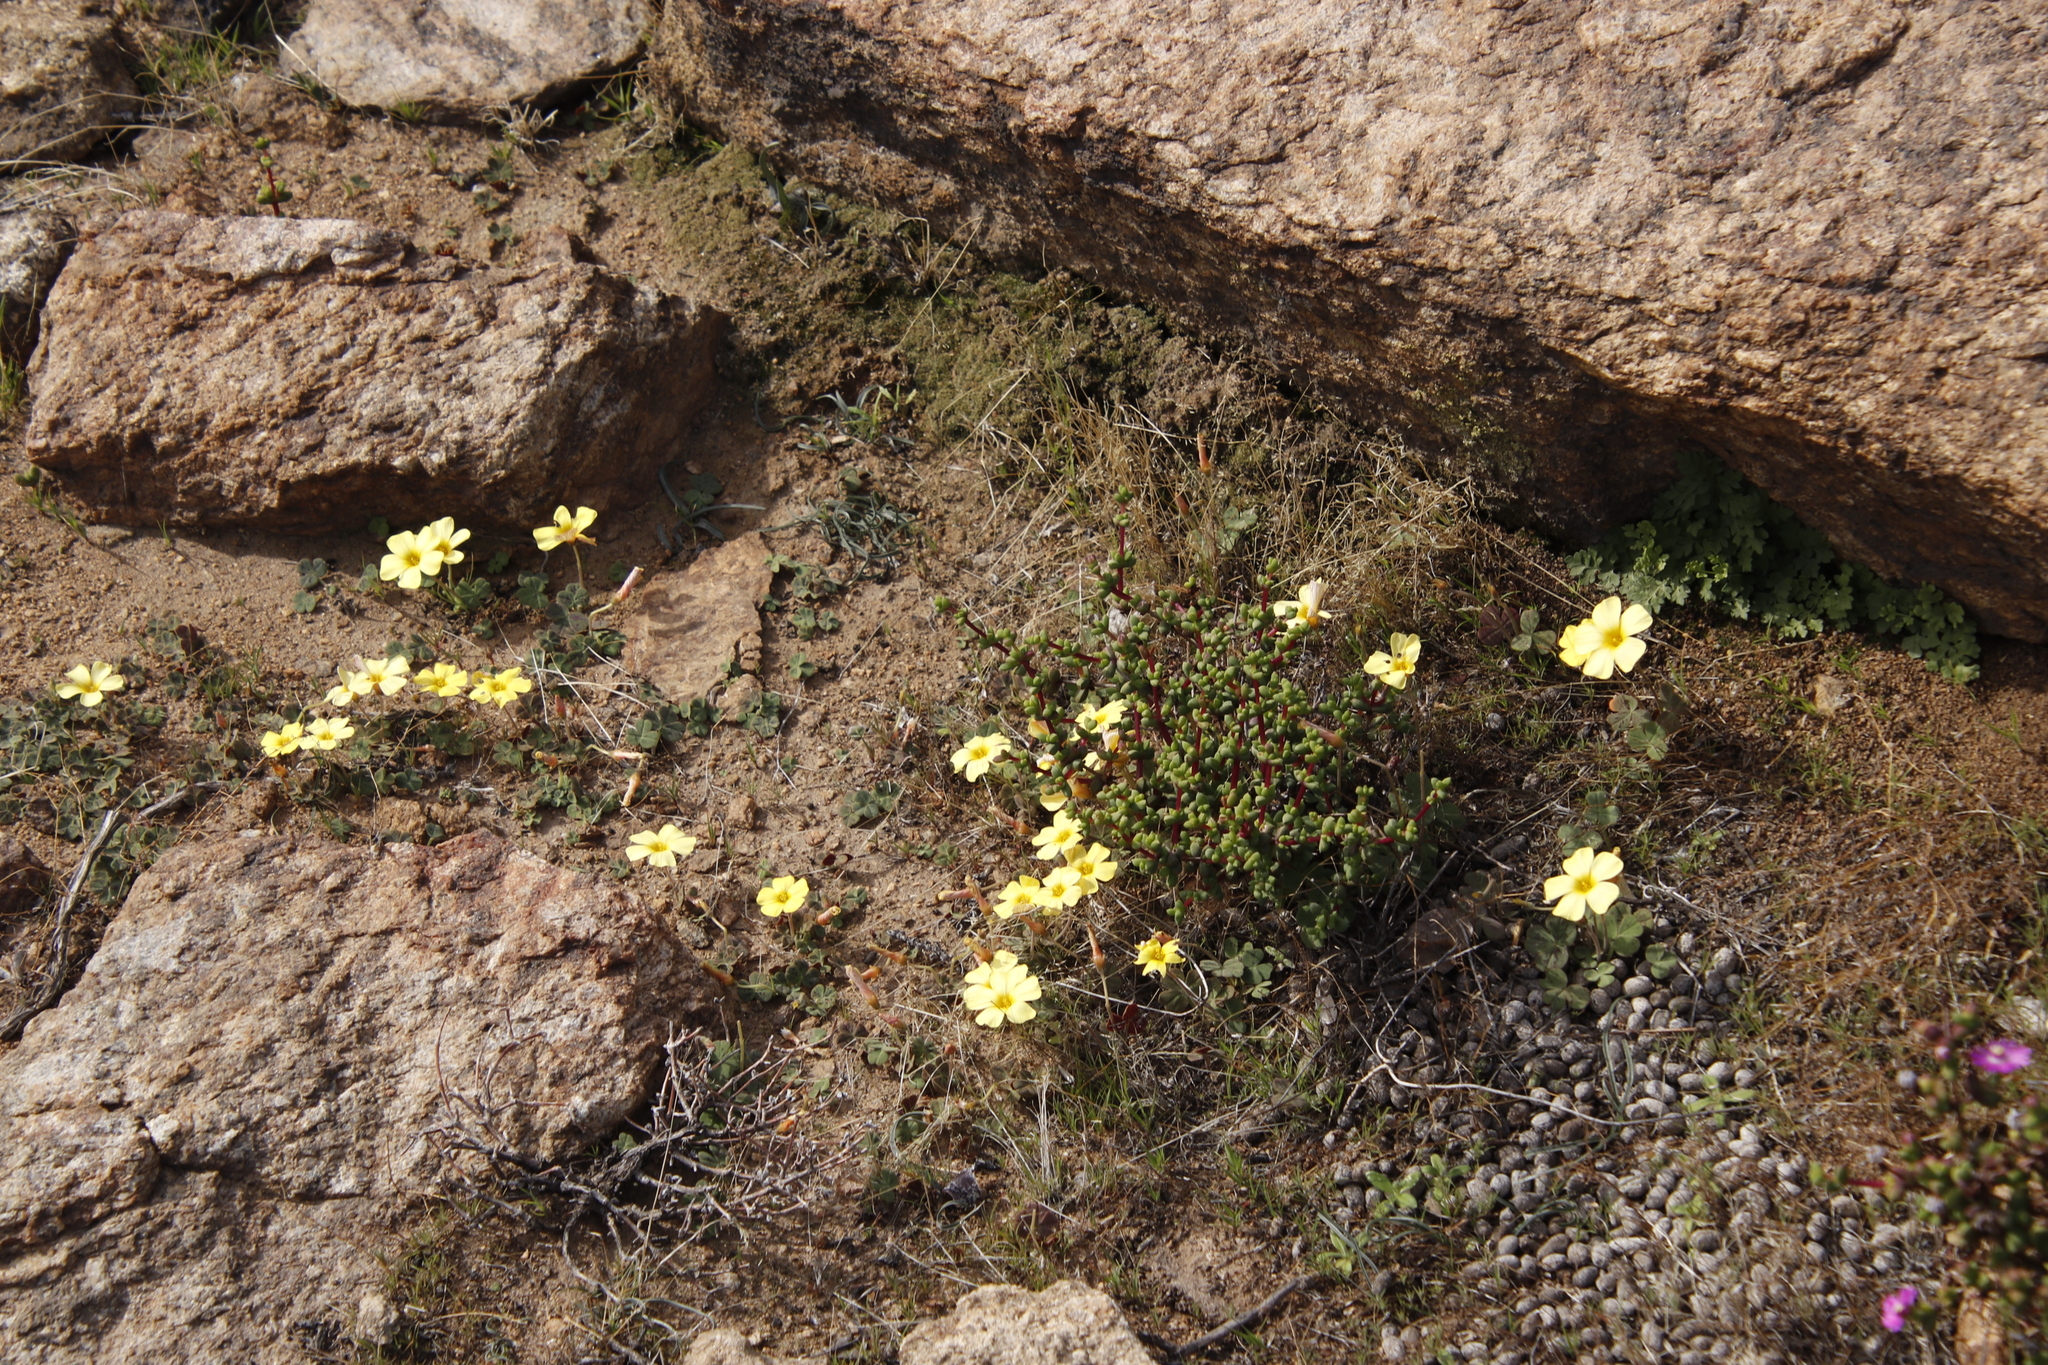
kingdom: Plantae
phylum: Tracheophyta
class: Magnoliopsida
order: Oxalidales
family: Oxalidaceae
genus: Oxalis
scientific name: Oxalis obtusa
